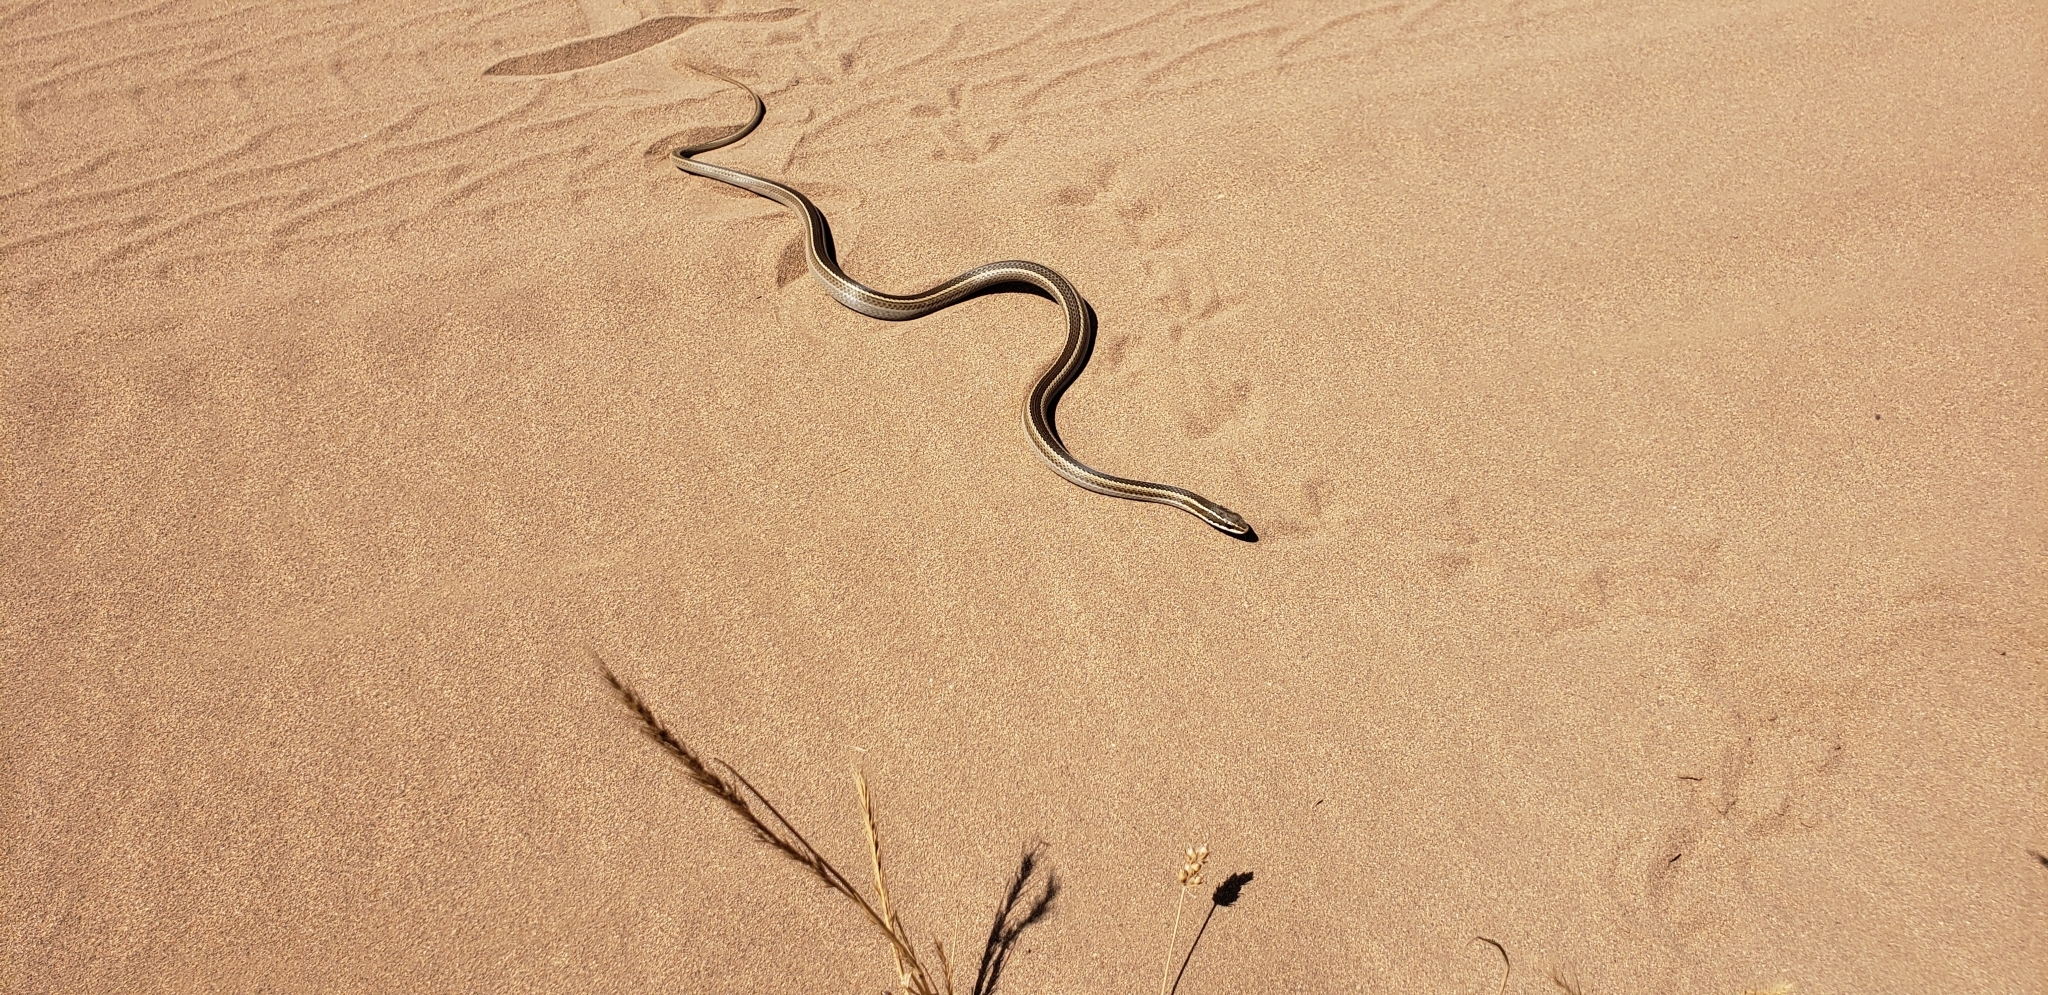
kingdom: Animalia
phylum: Chordata
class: Squamata
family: Colubridae
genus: Philodryas
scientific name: Philodryas chamissonis
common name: Chilean green racer
